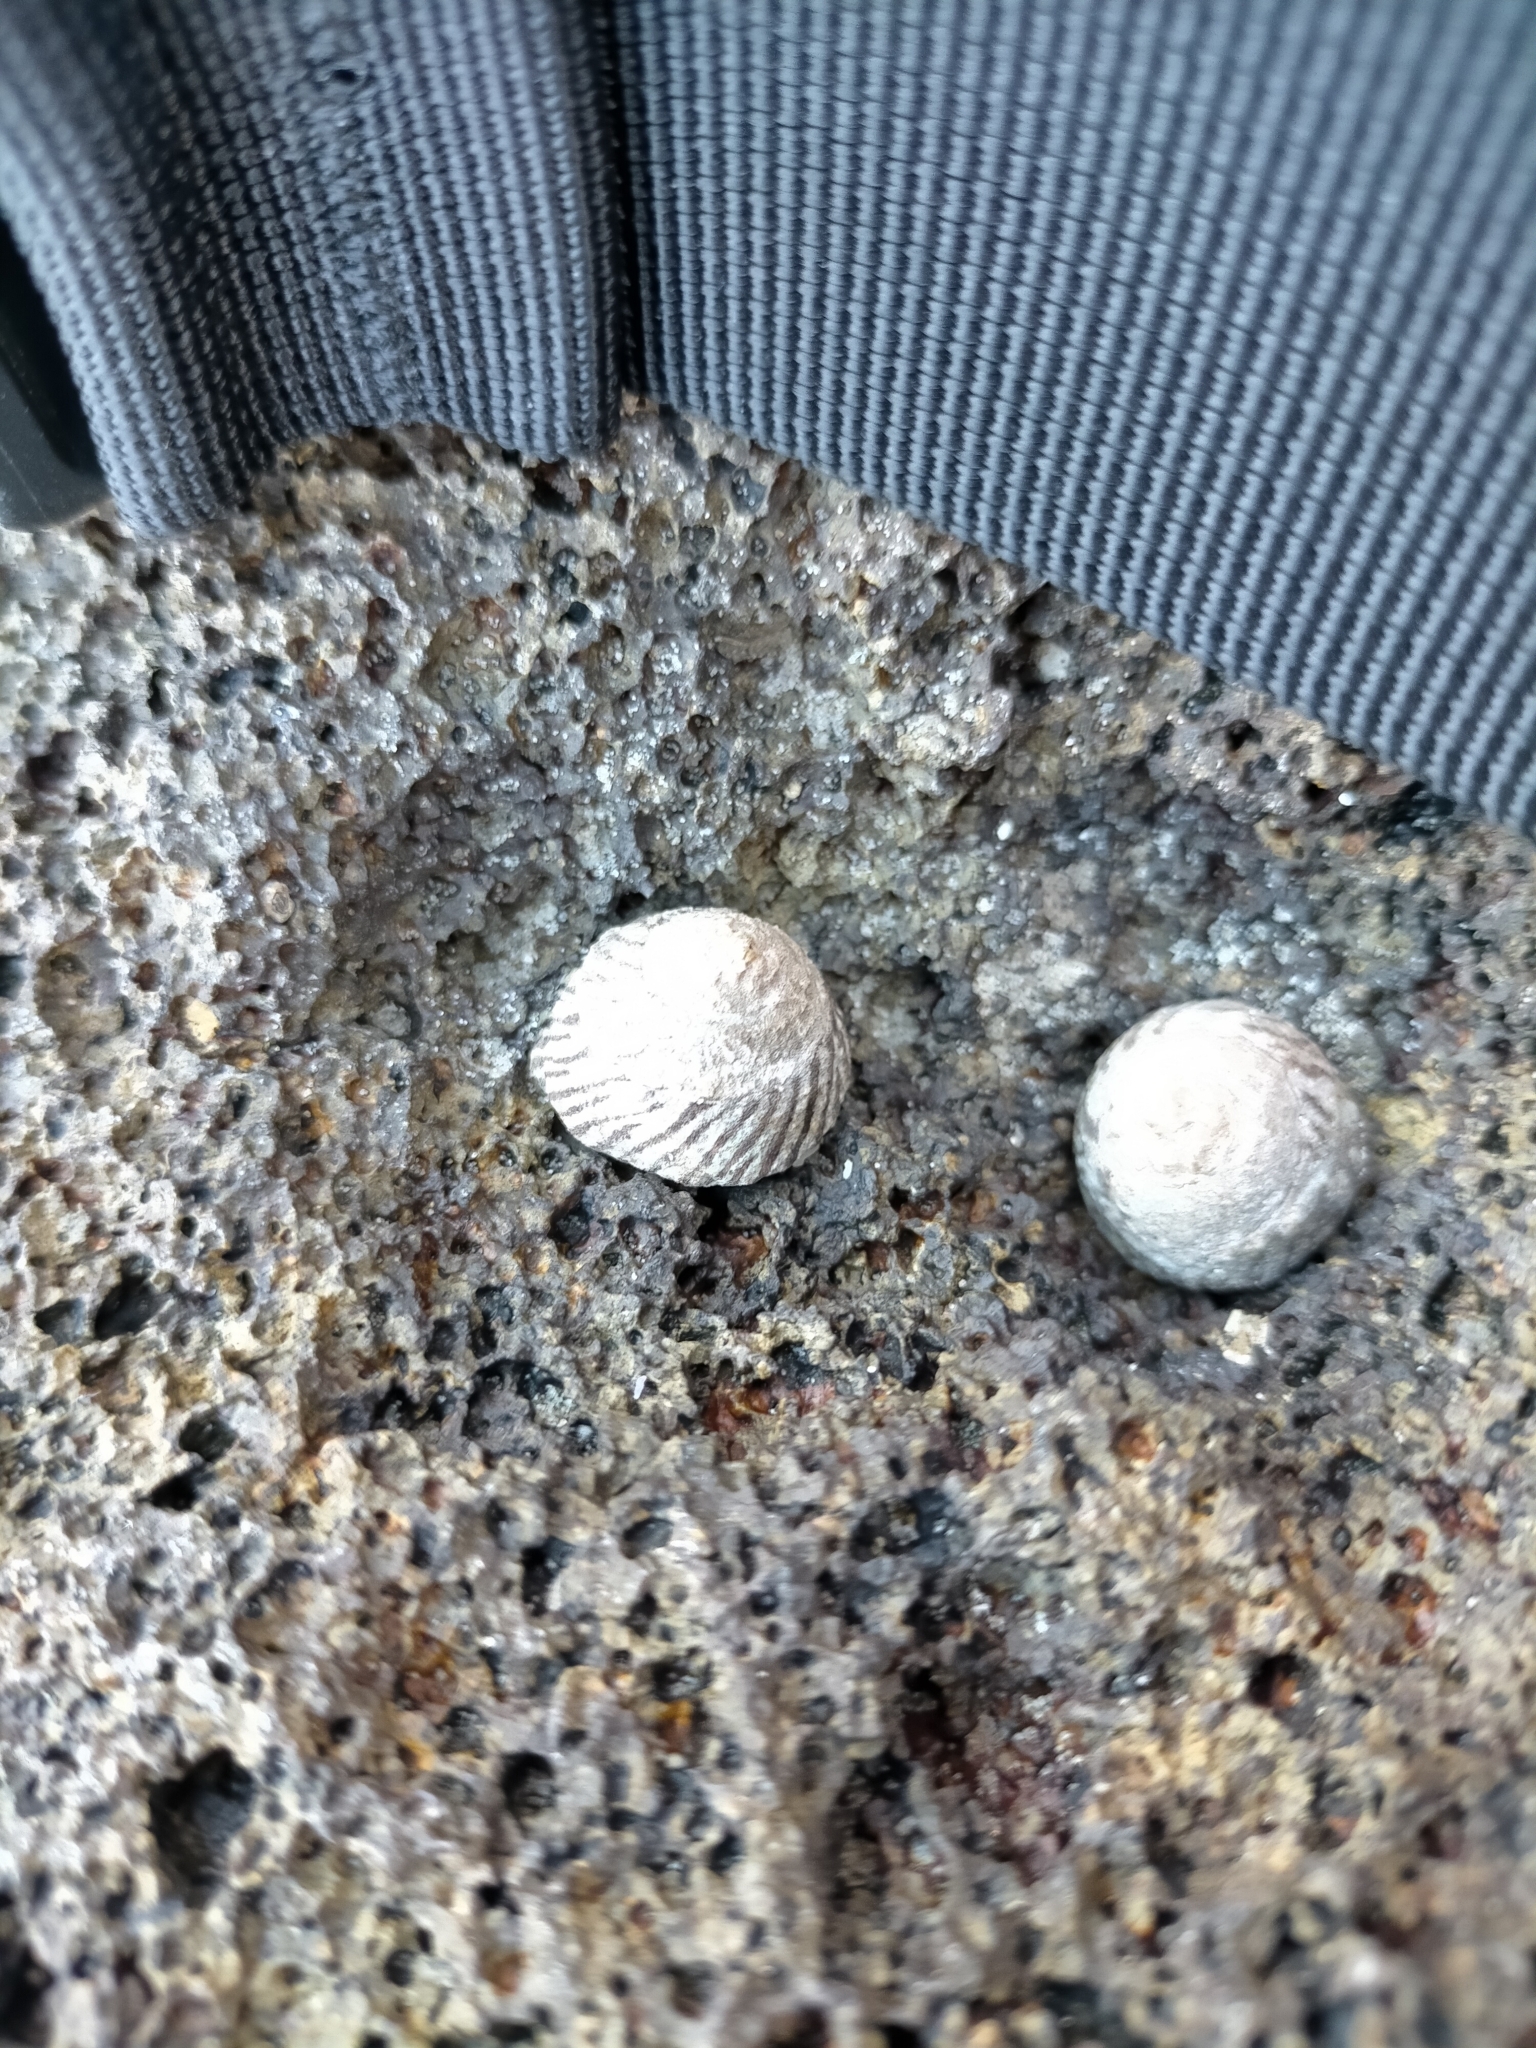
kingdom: Animalia
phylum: Mollusca
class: Gastropoda
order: Littorinimorpha
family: Littorinidae
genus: Bembicium
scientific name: Bembicium nanum
